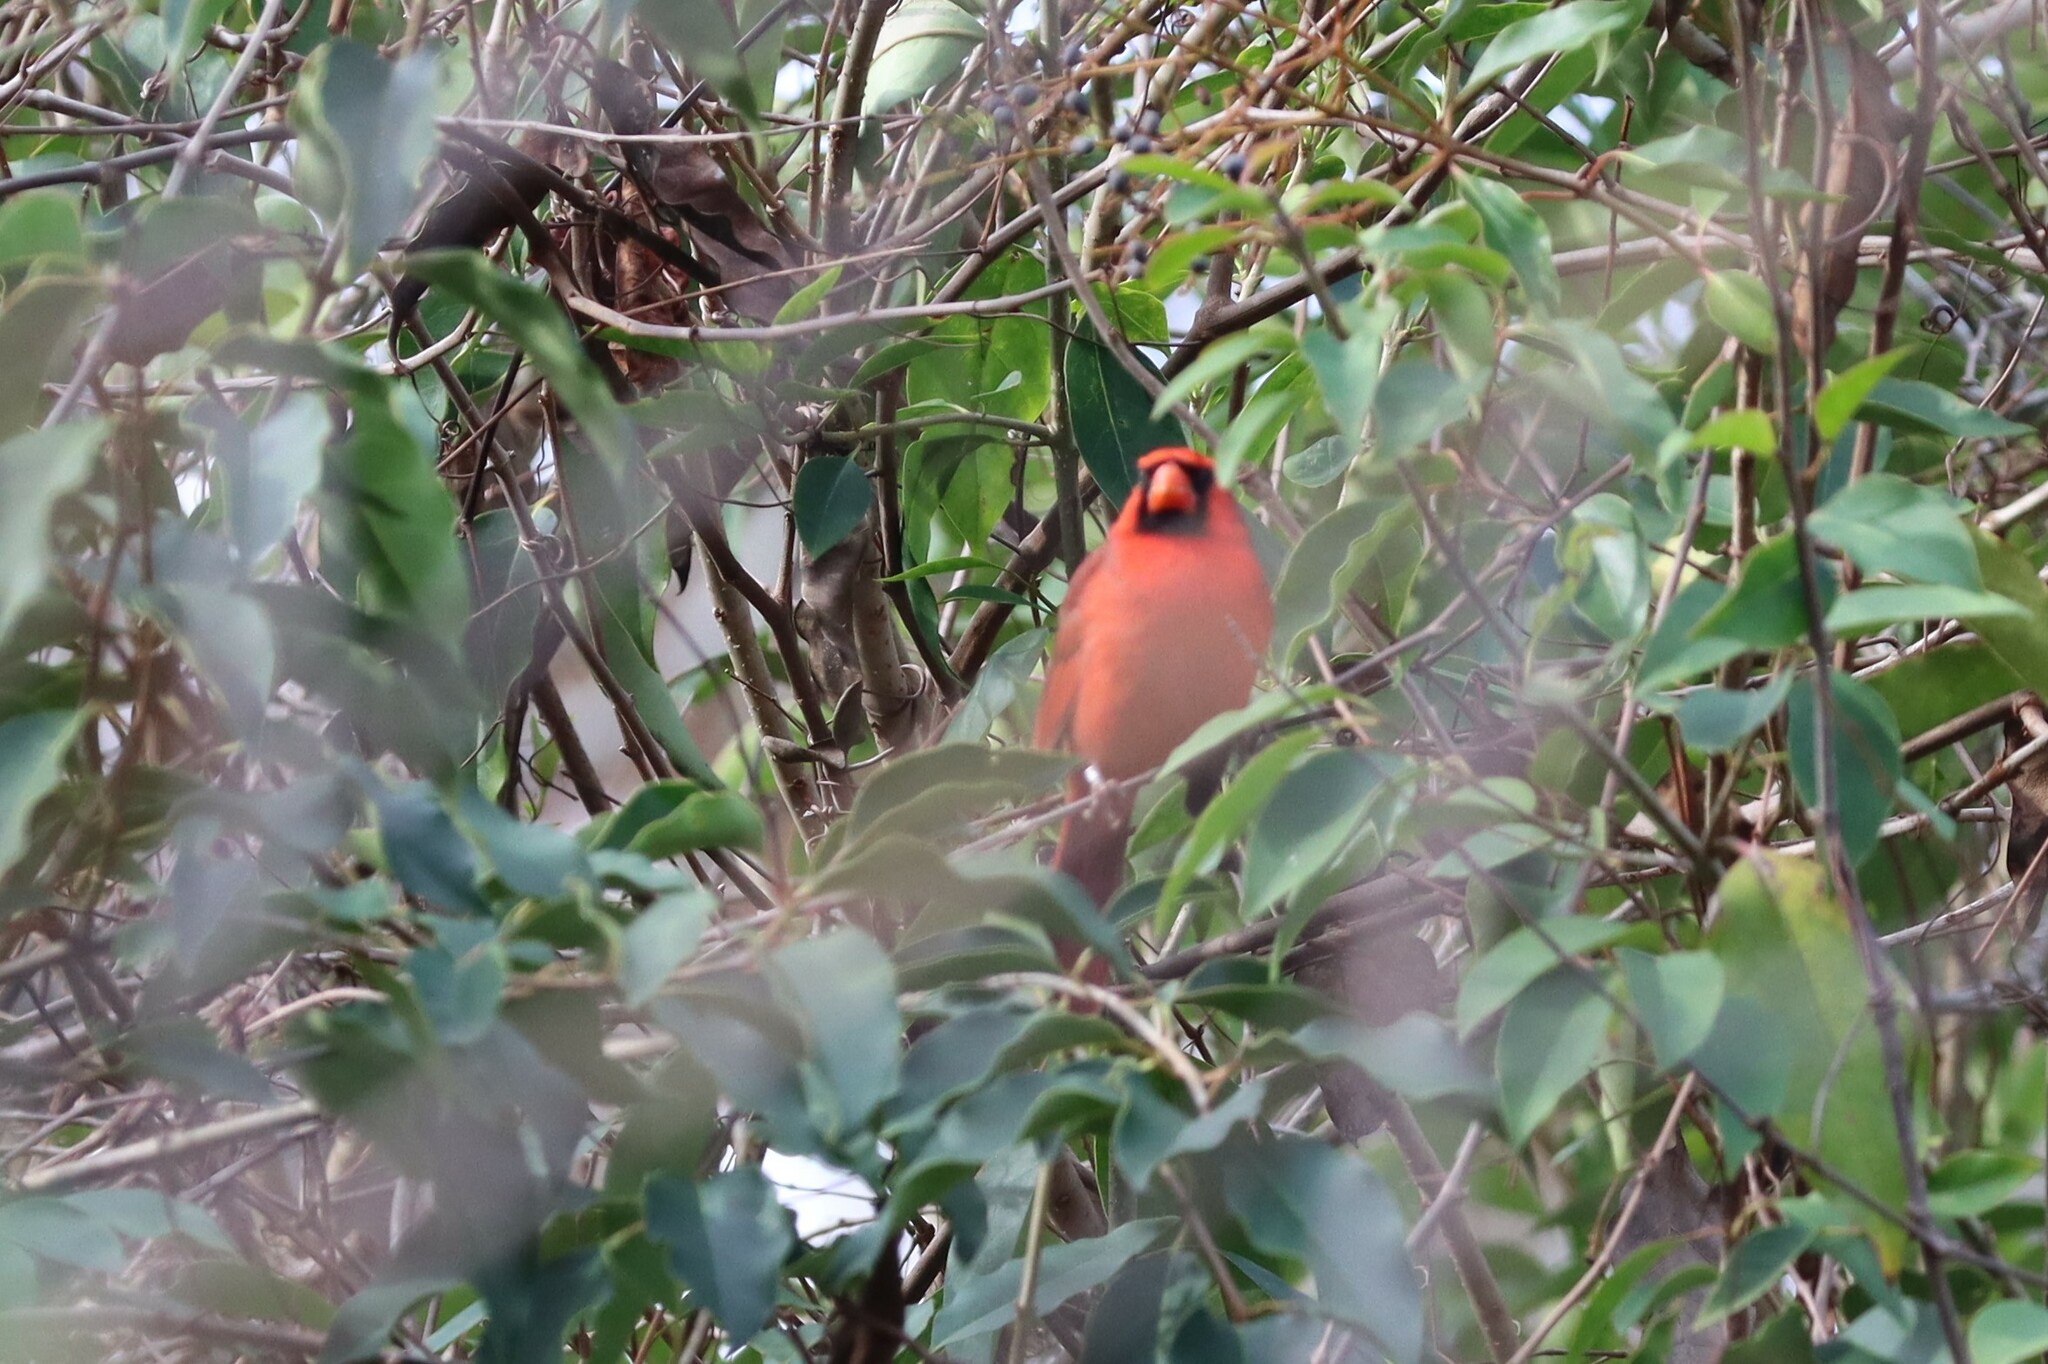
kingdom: Animalia
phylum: Chordata
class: Aves
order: Passeriformes
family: Cardinalidae
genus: Cardinalis
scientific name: Cardinalis cardinalis
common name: Northern cardinal
